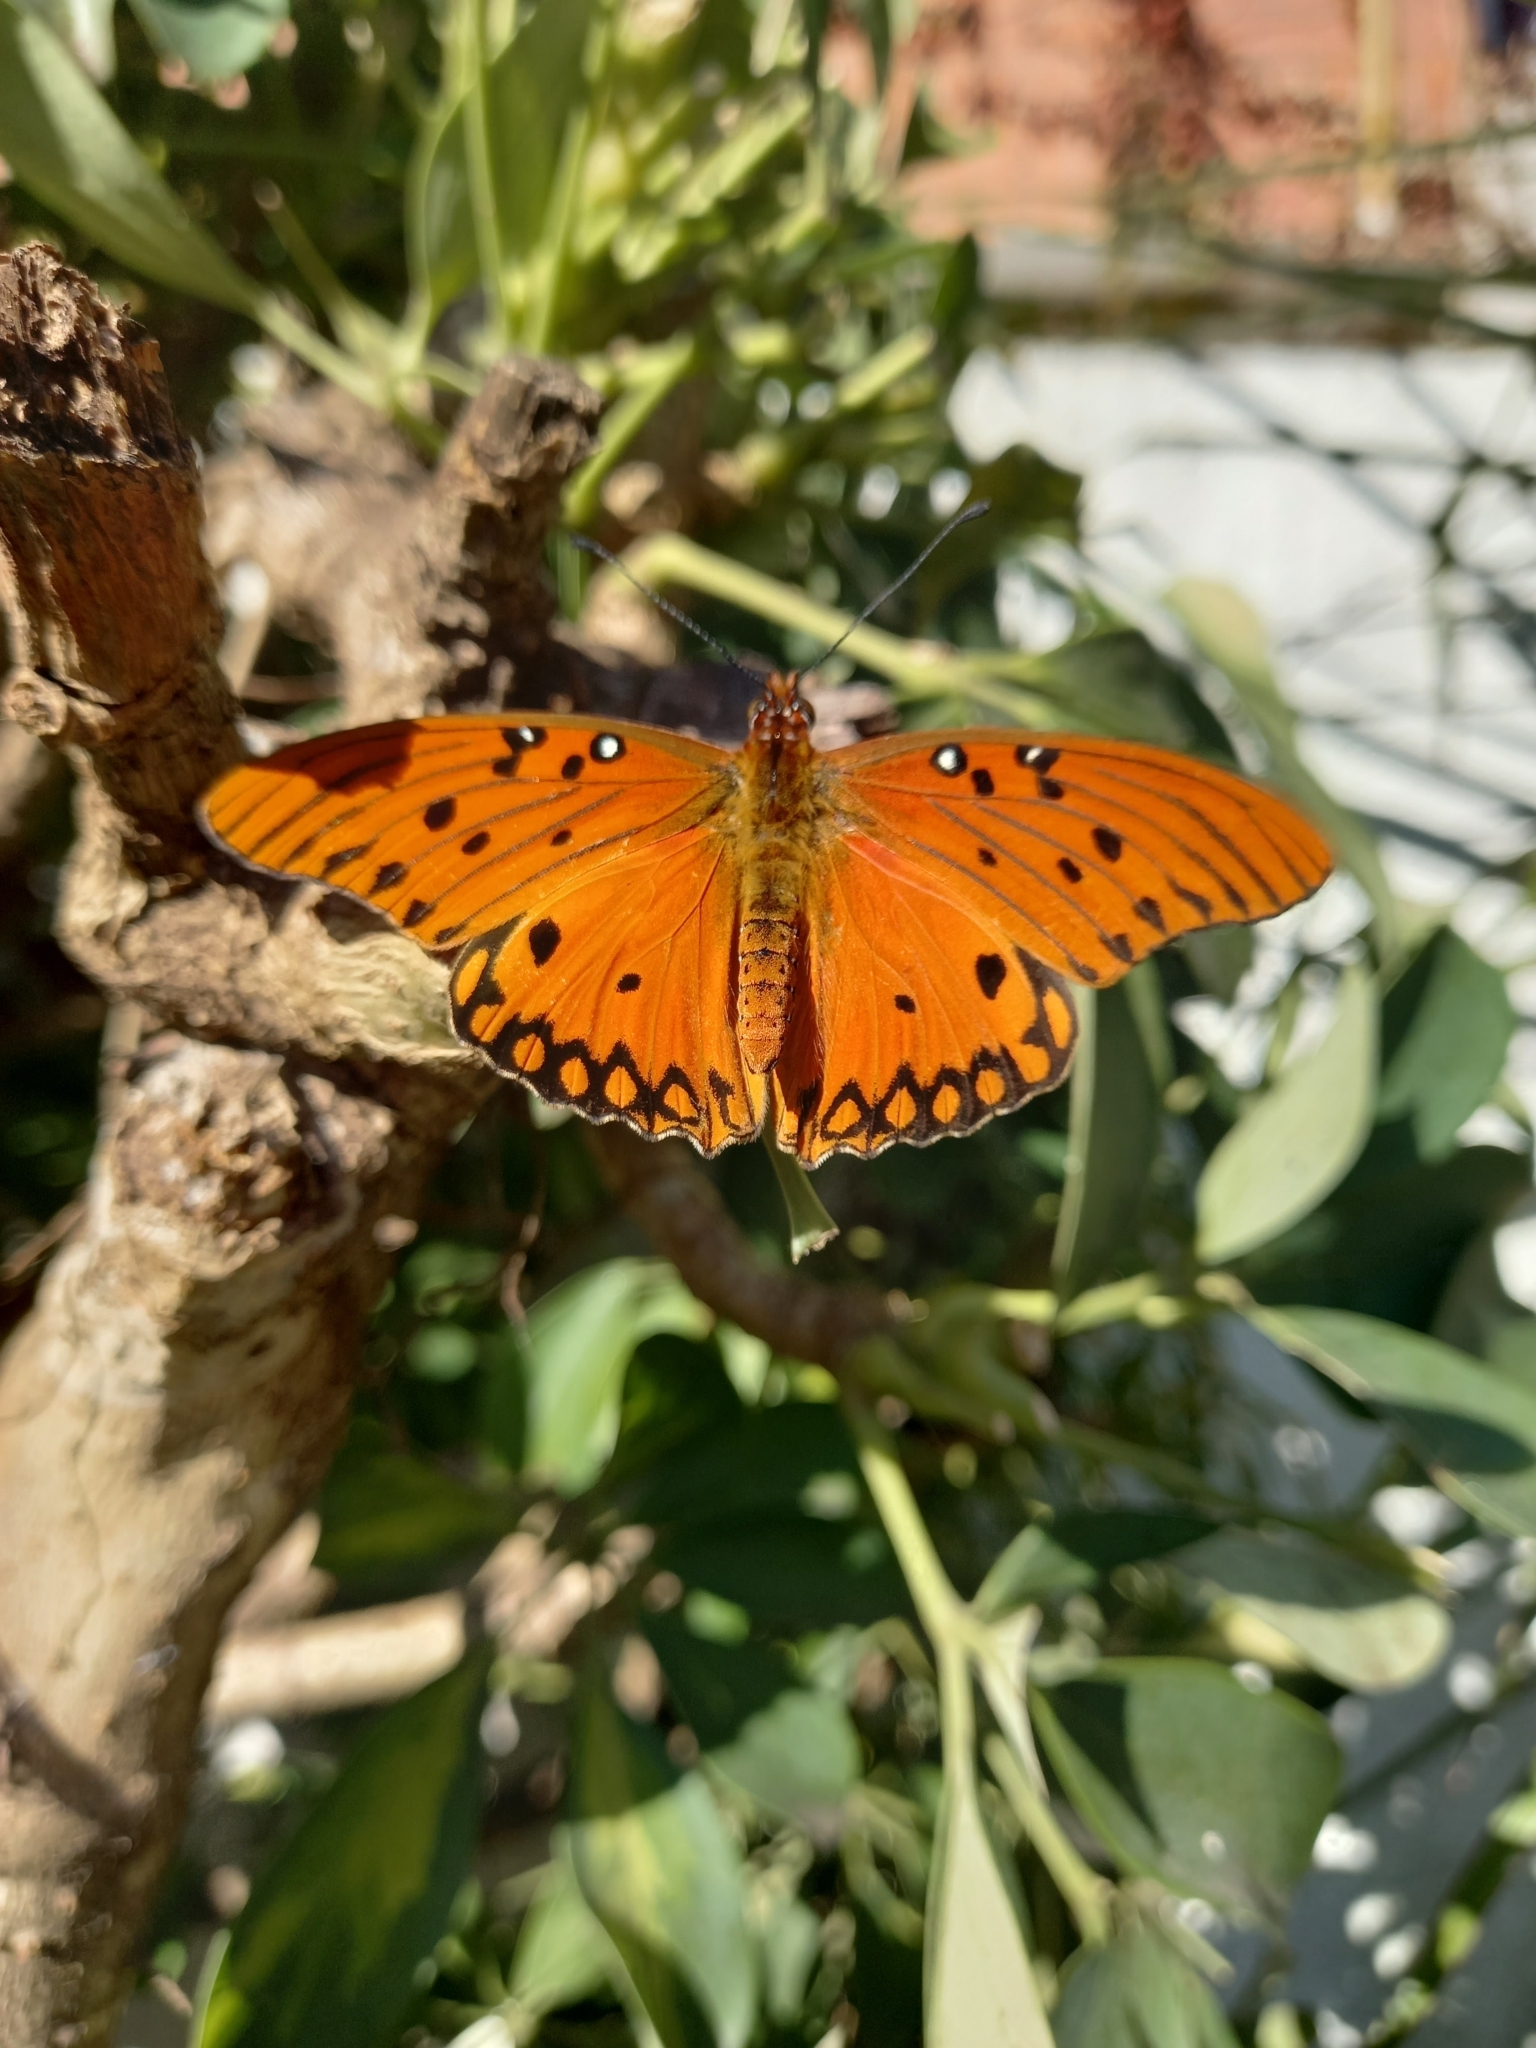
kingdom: Animalia
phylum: Arthropoda
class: Insecta
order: Lepidoptera
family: Nymphalidae
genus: Dione
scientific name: Dione vanillae
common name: Gulf fritillary
